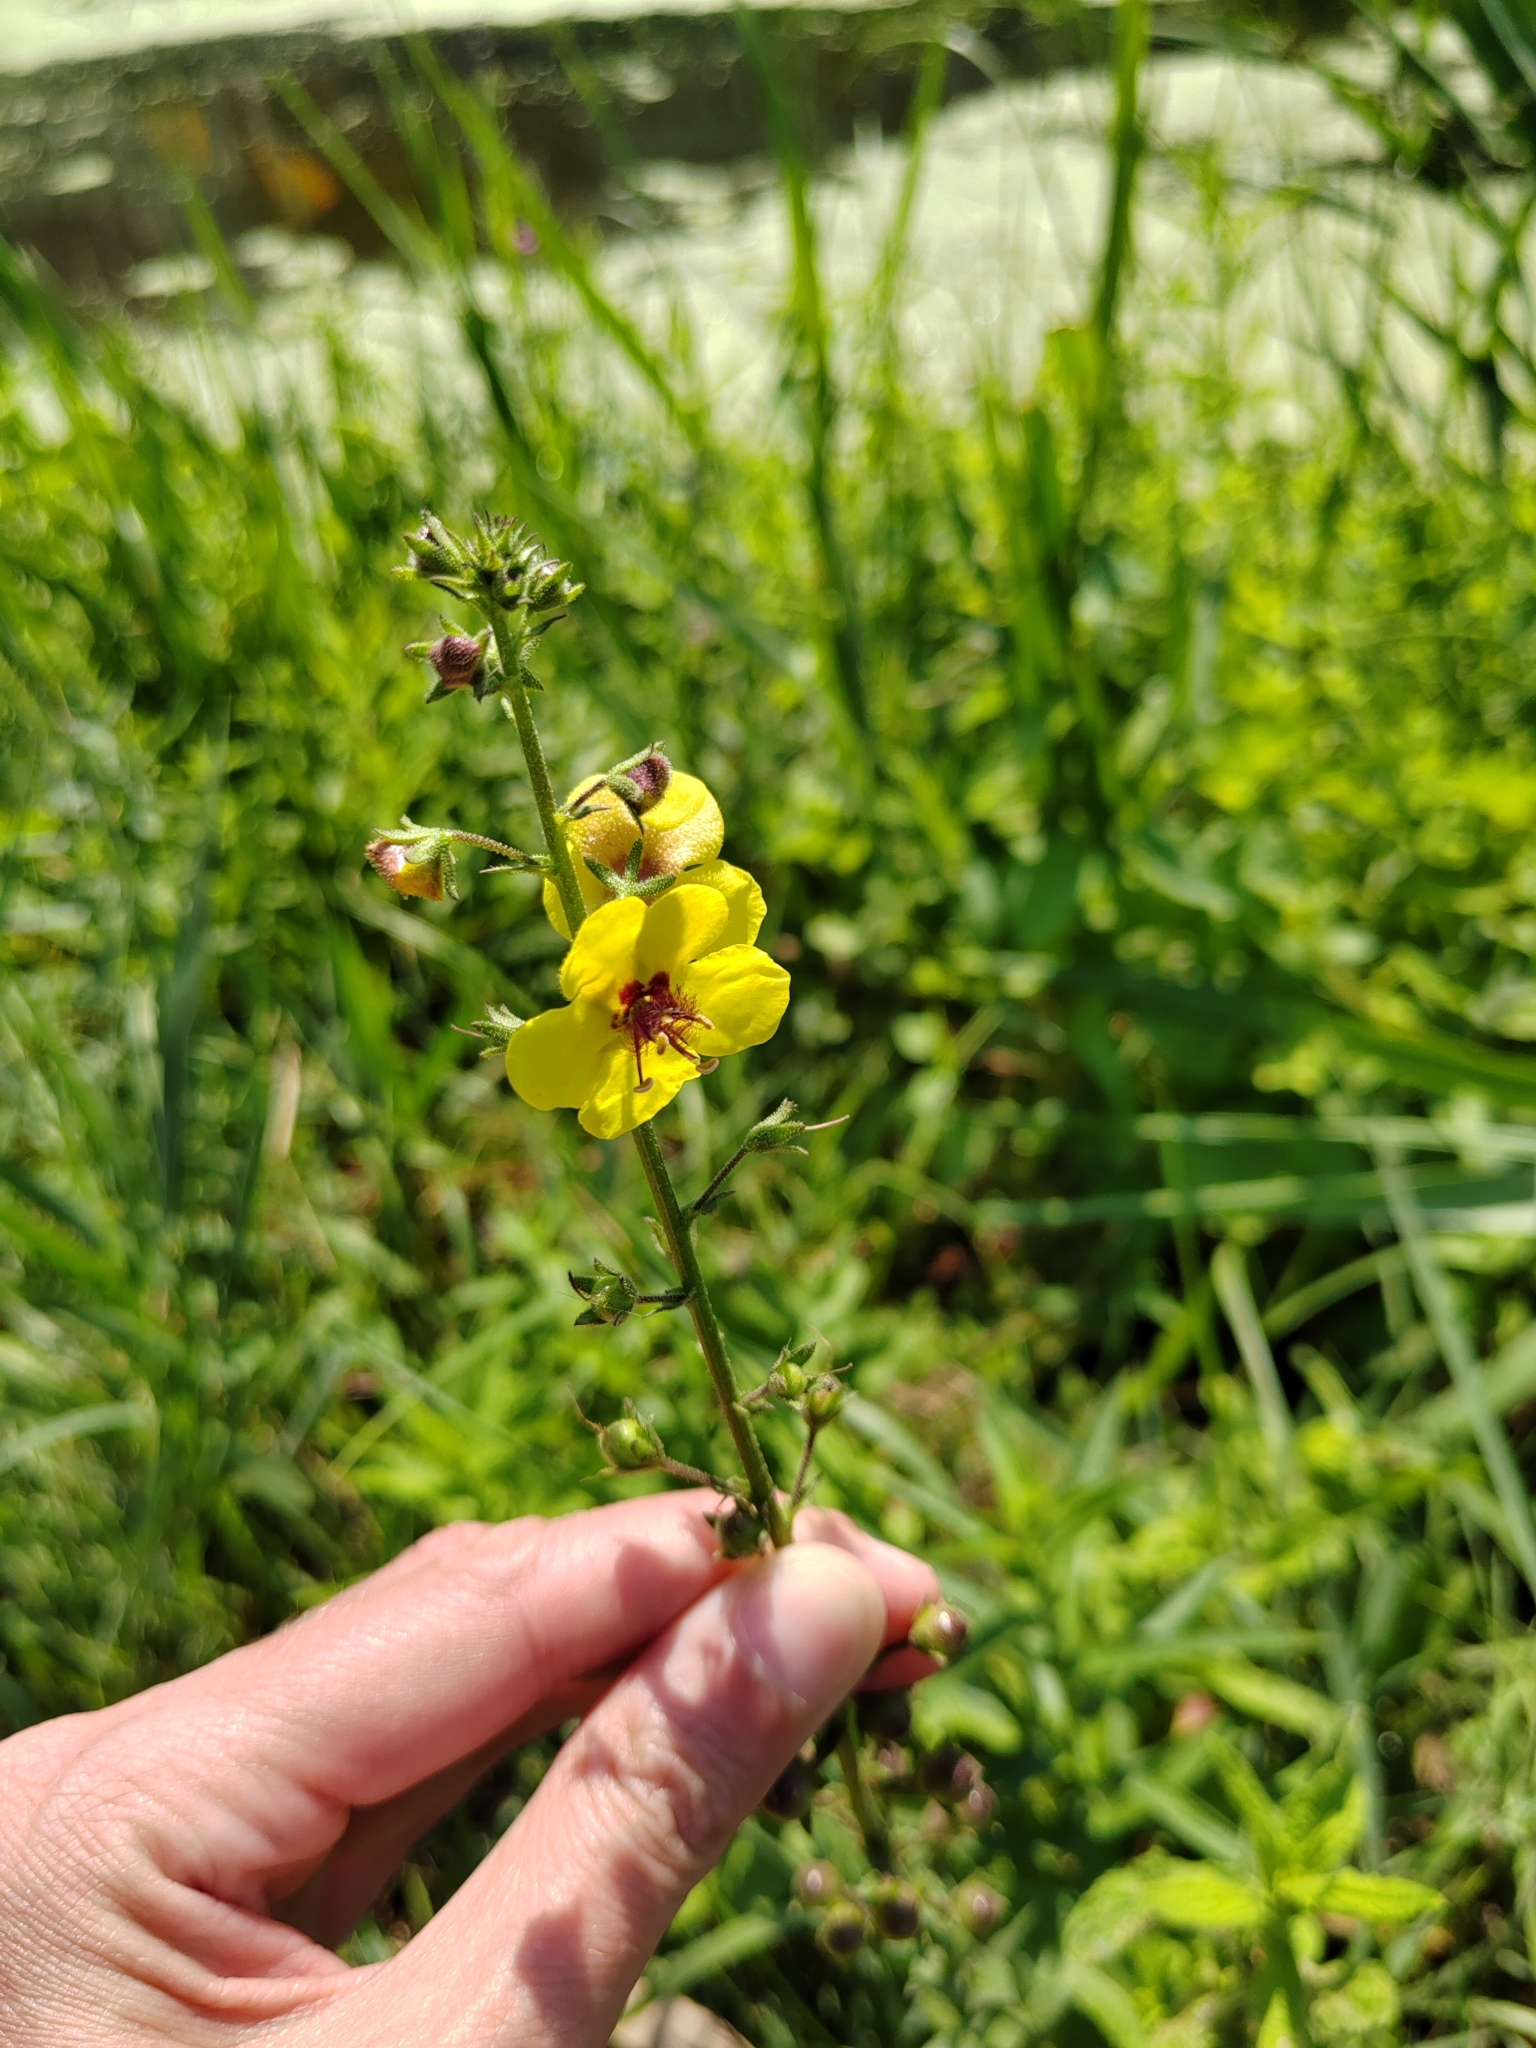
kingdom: Plantae
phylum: Tracheophyta
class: Magnoliopsida
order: Lamiales
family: Scrophulariaceae
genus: Verbascum
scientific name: Verbascum blattaria
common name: Moth mullein
